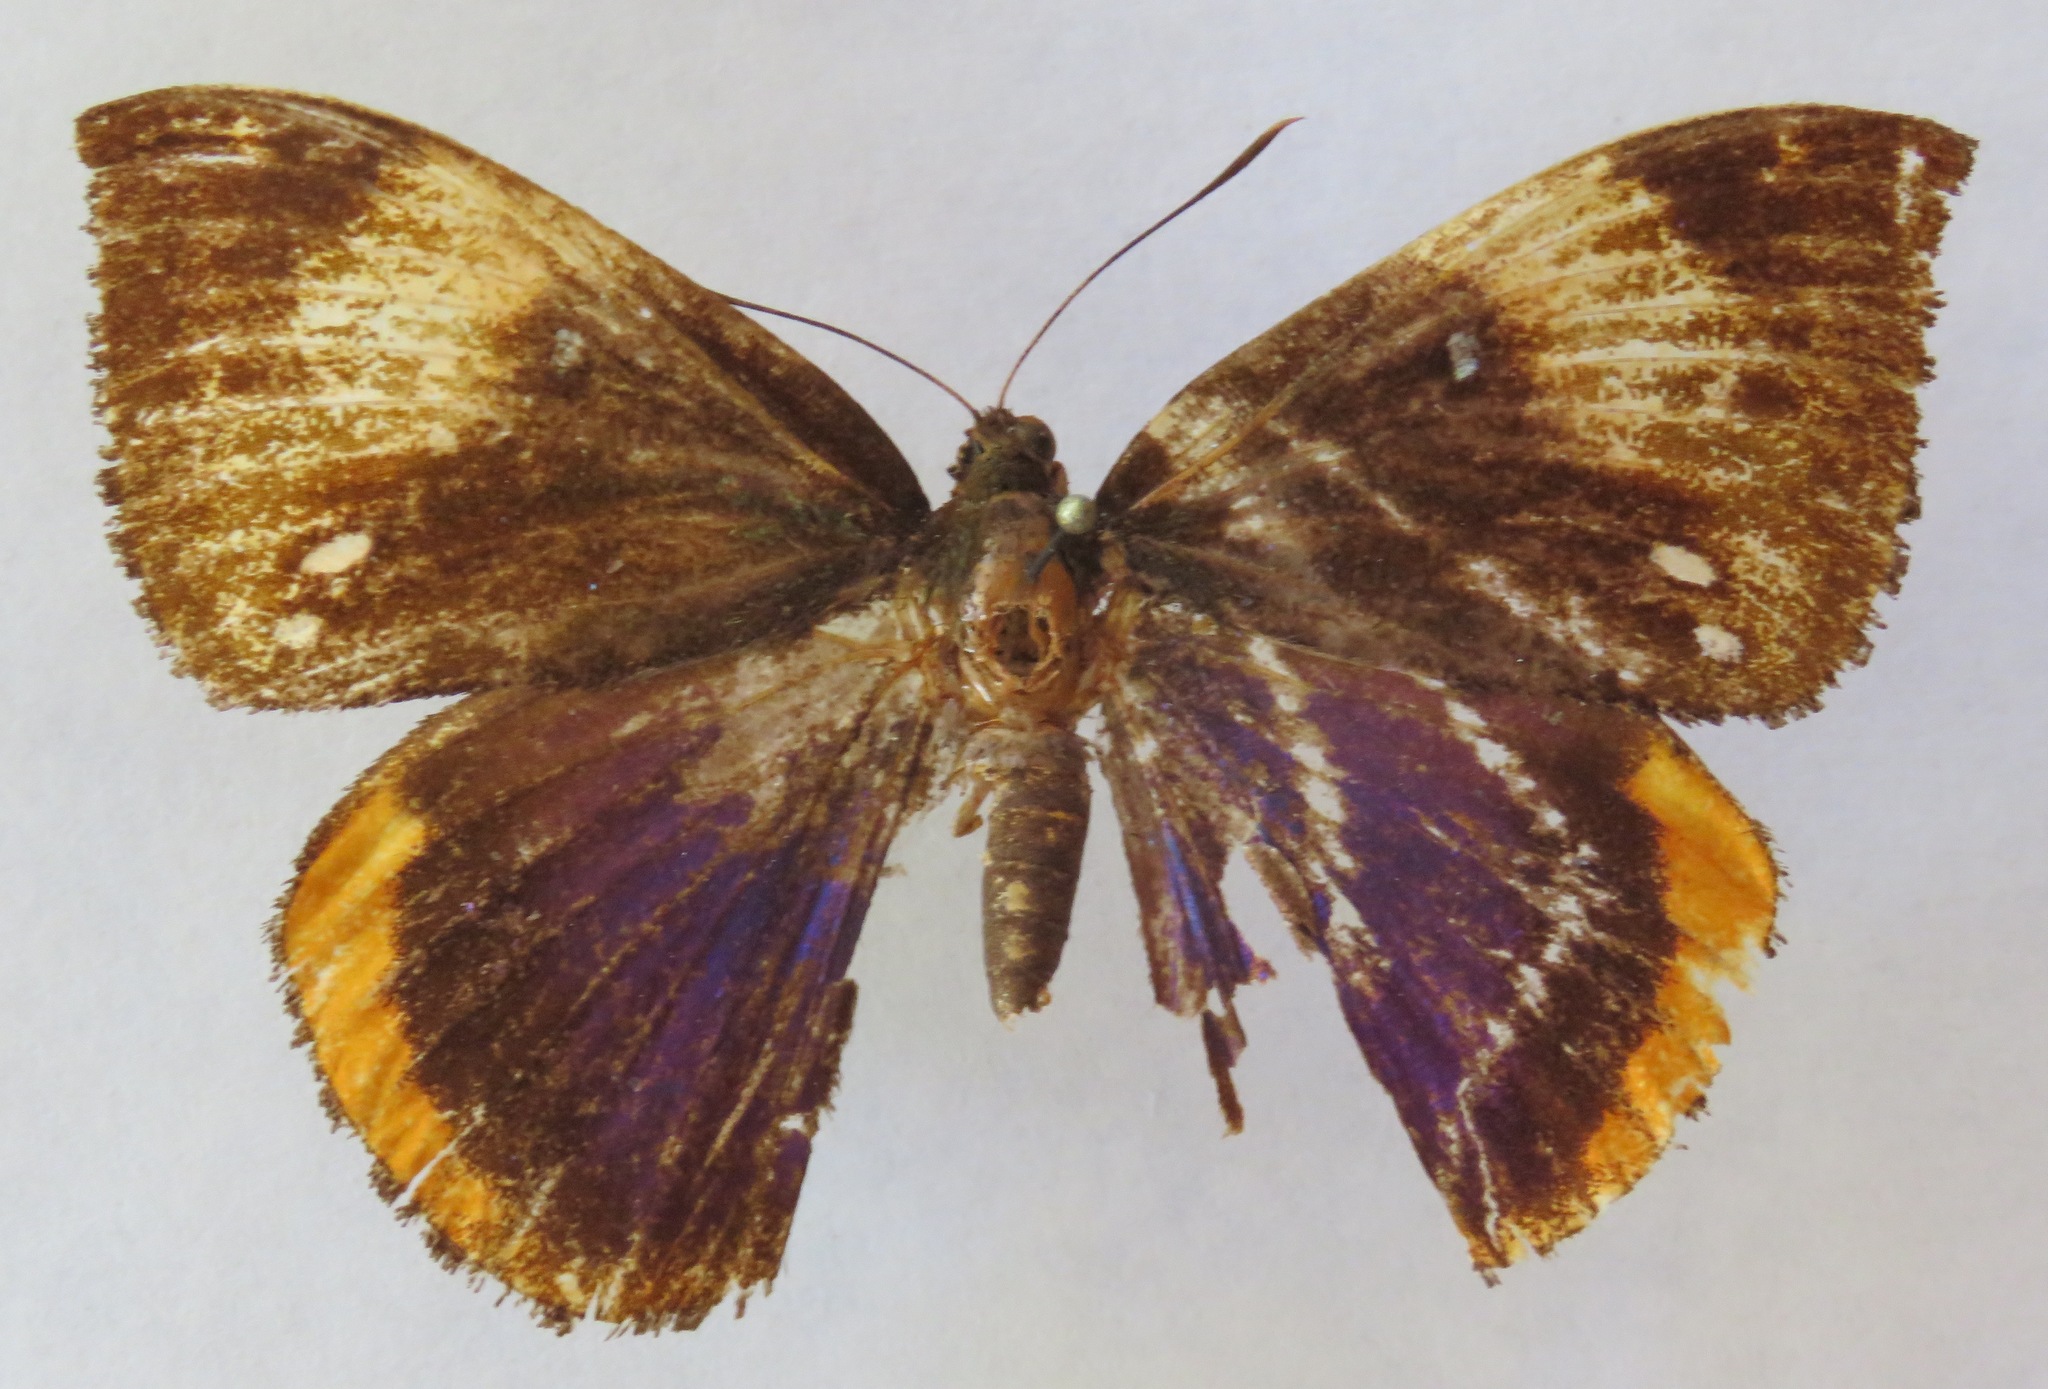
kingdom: Animalia
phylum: Arthropoda
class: Insecta
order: Lepidoptera
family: Castniidae
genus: Divana
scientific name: Divana diva
